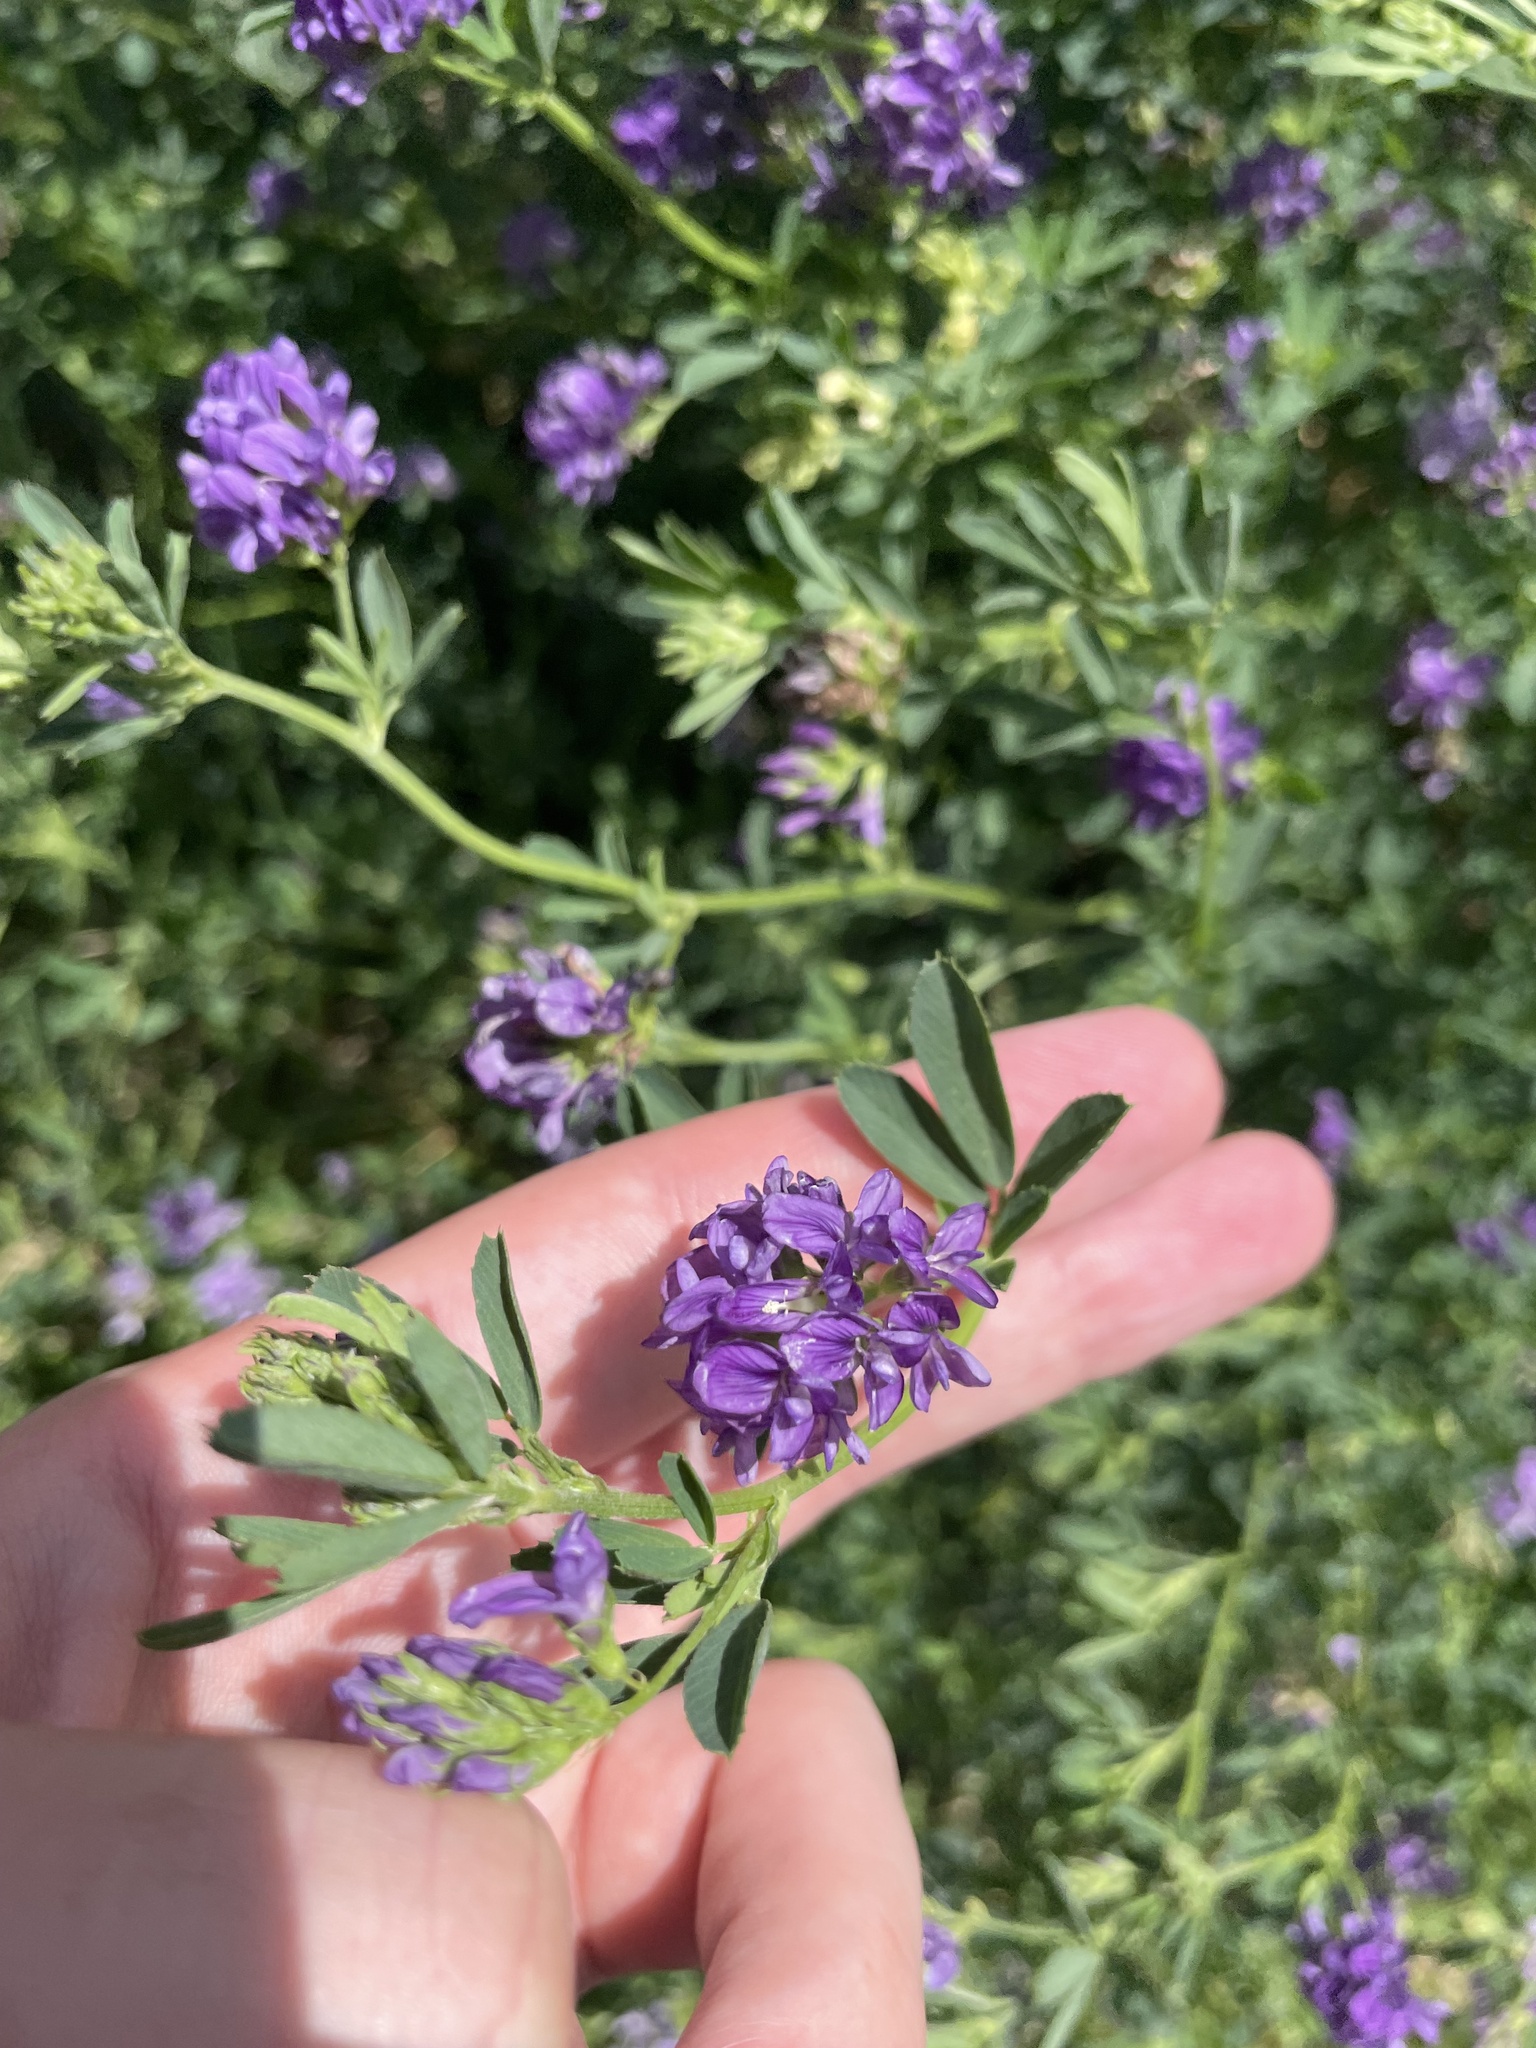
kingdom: Plantae
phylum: Tracheophyta
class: Magnoliopsida
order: Fabales
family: Fabaceae
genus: Medicago
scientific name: Medicago sativa
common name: Alfalfa
